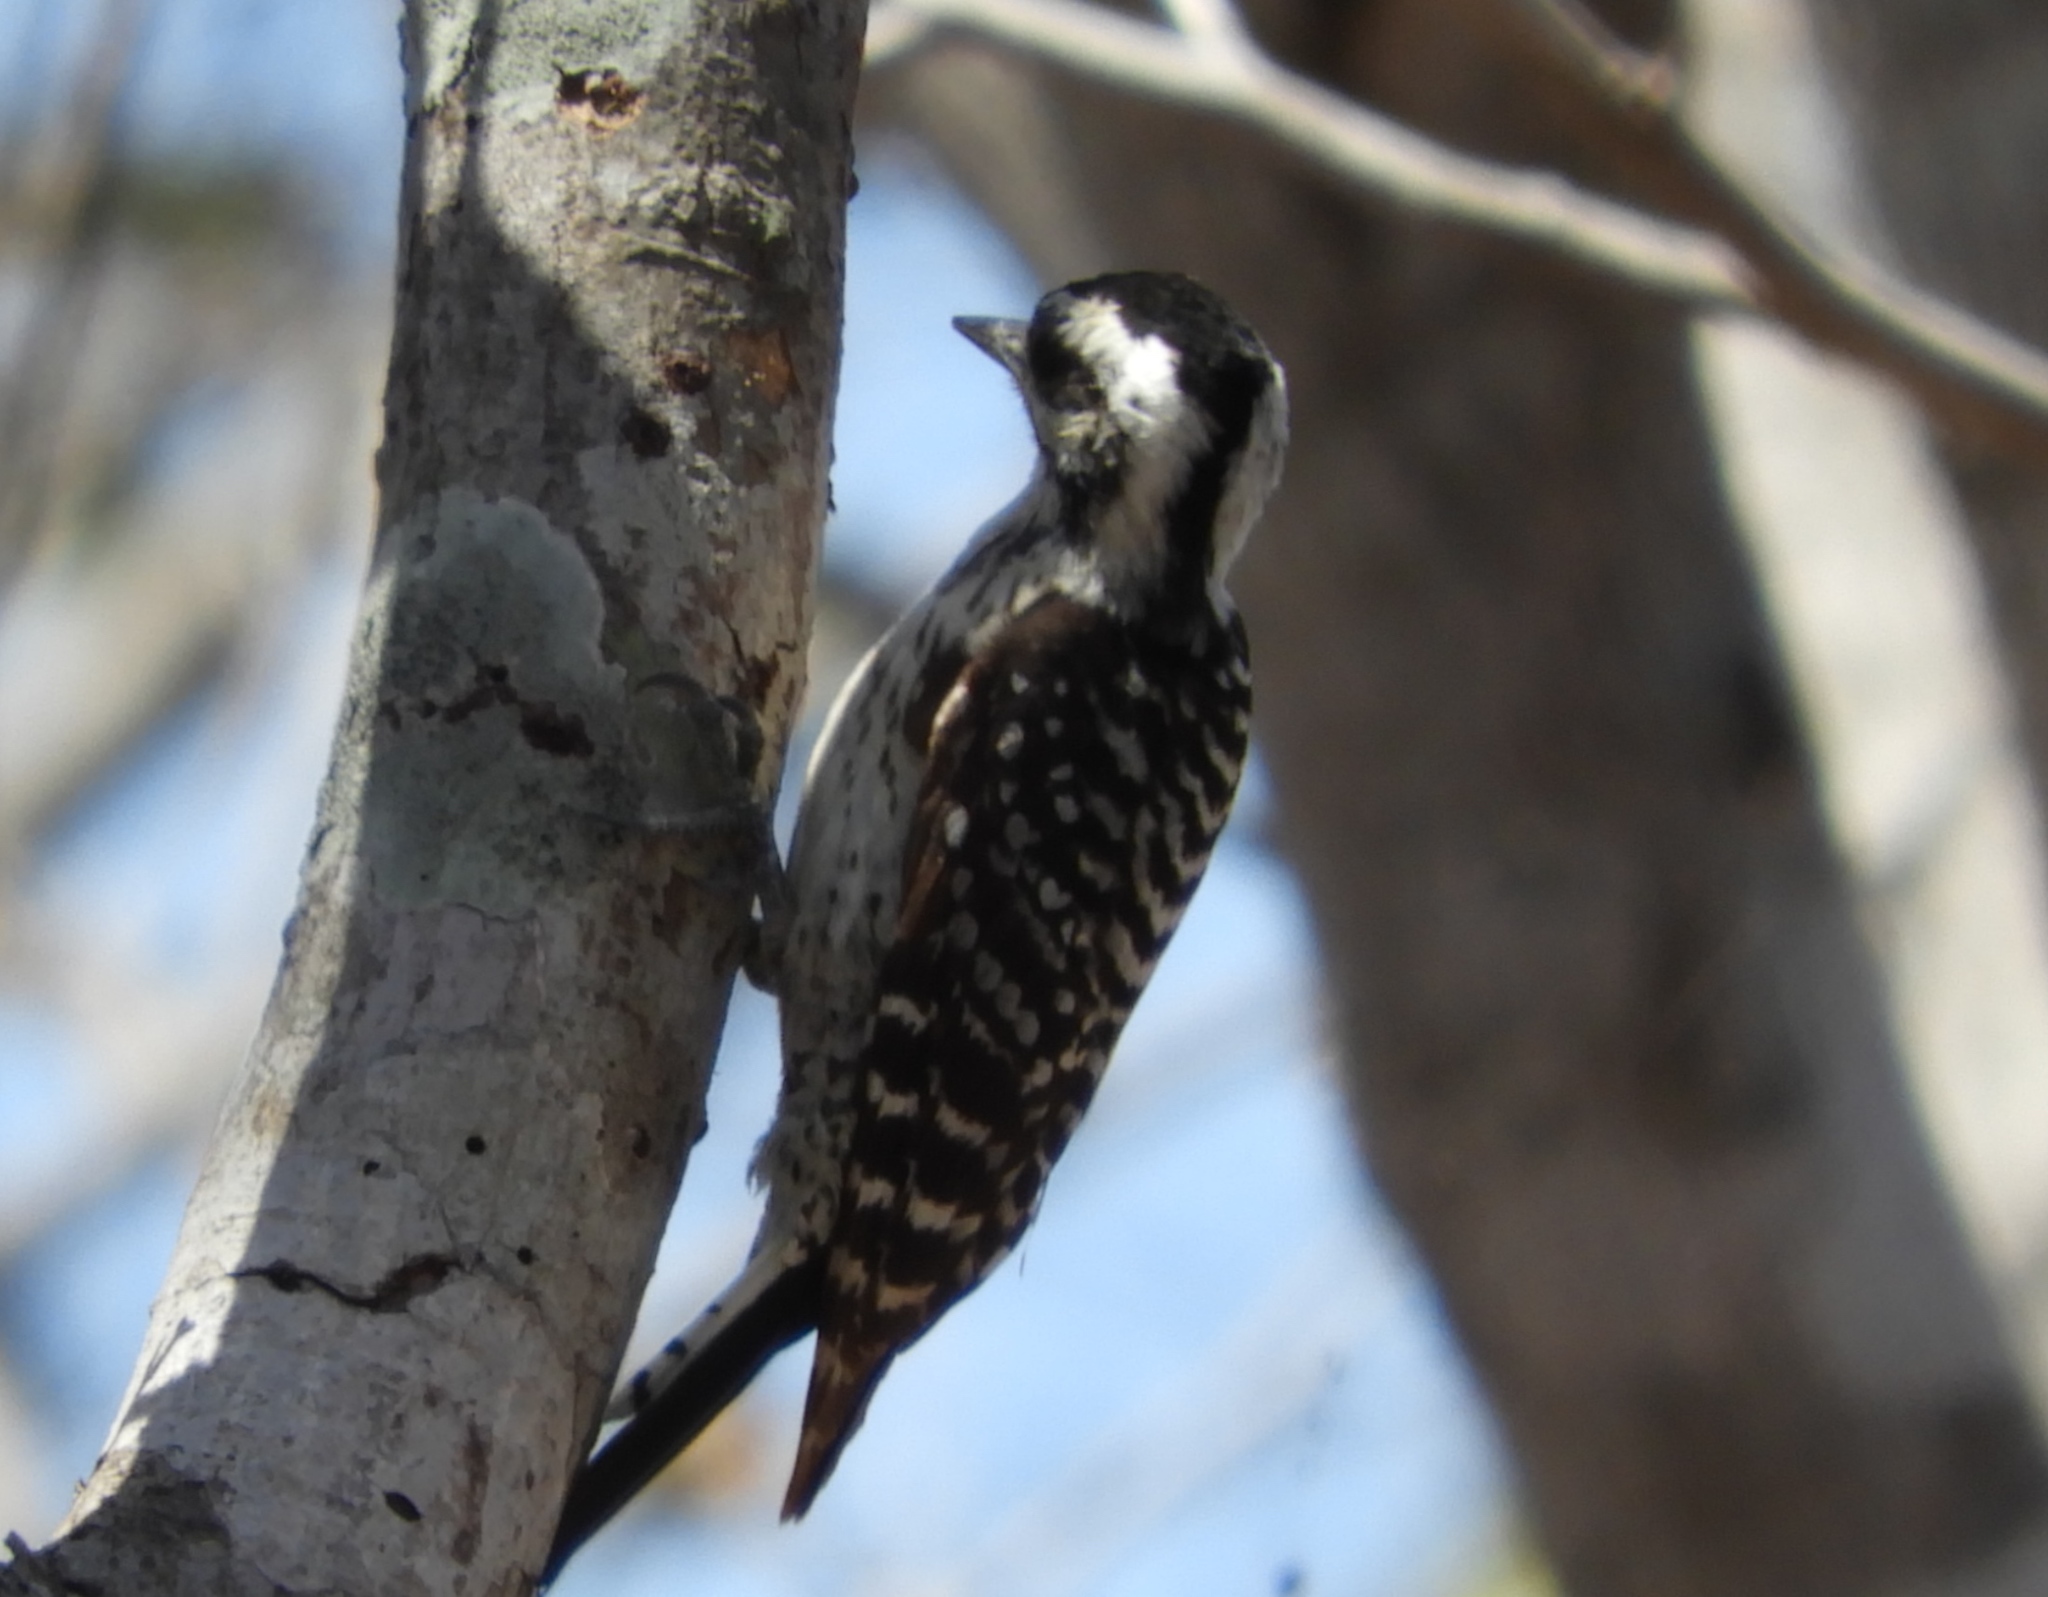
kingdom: Animalia
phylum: Chordata
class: Aves
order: Piciformes
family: Picidae
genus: Dryobates
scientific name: Dryobates scalaris
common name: Ladder-backed woodpecker
